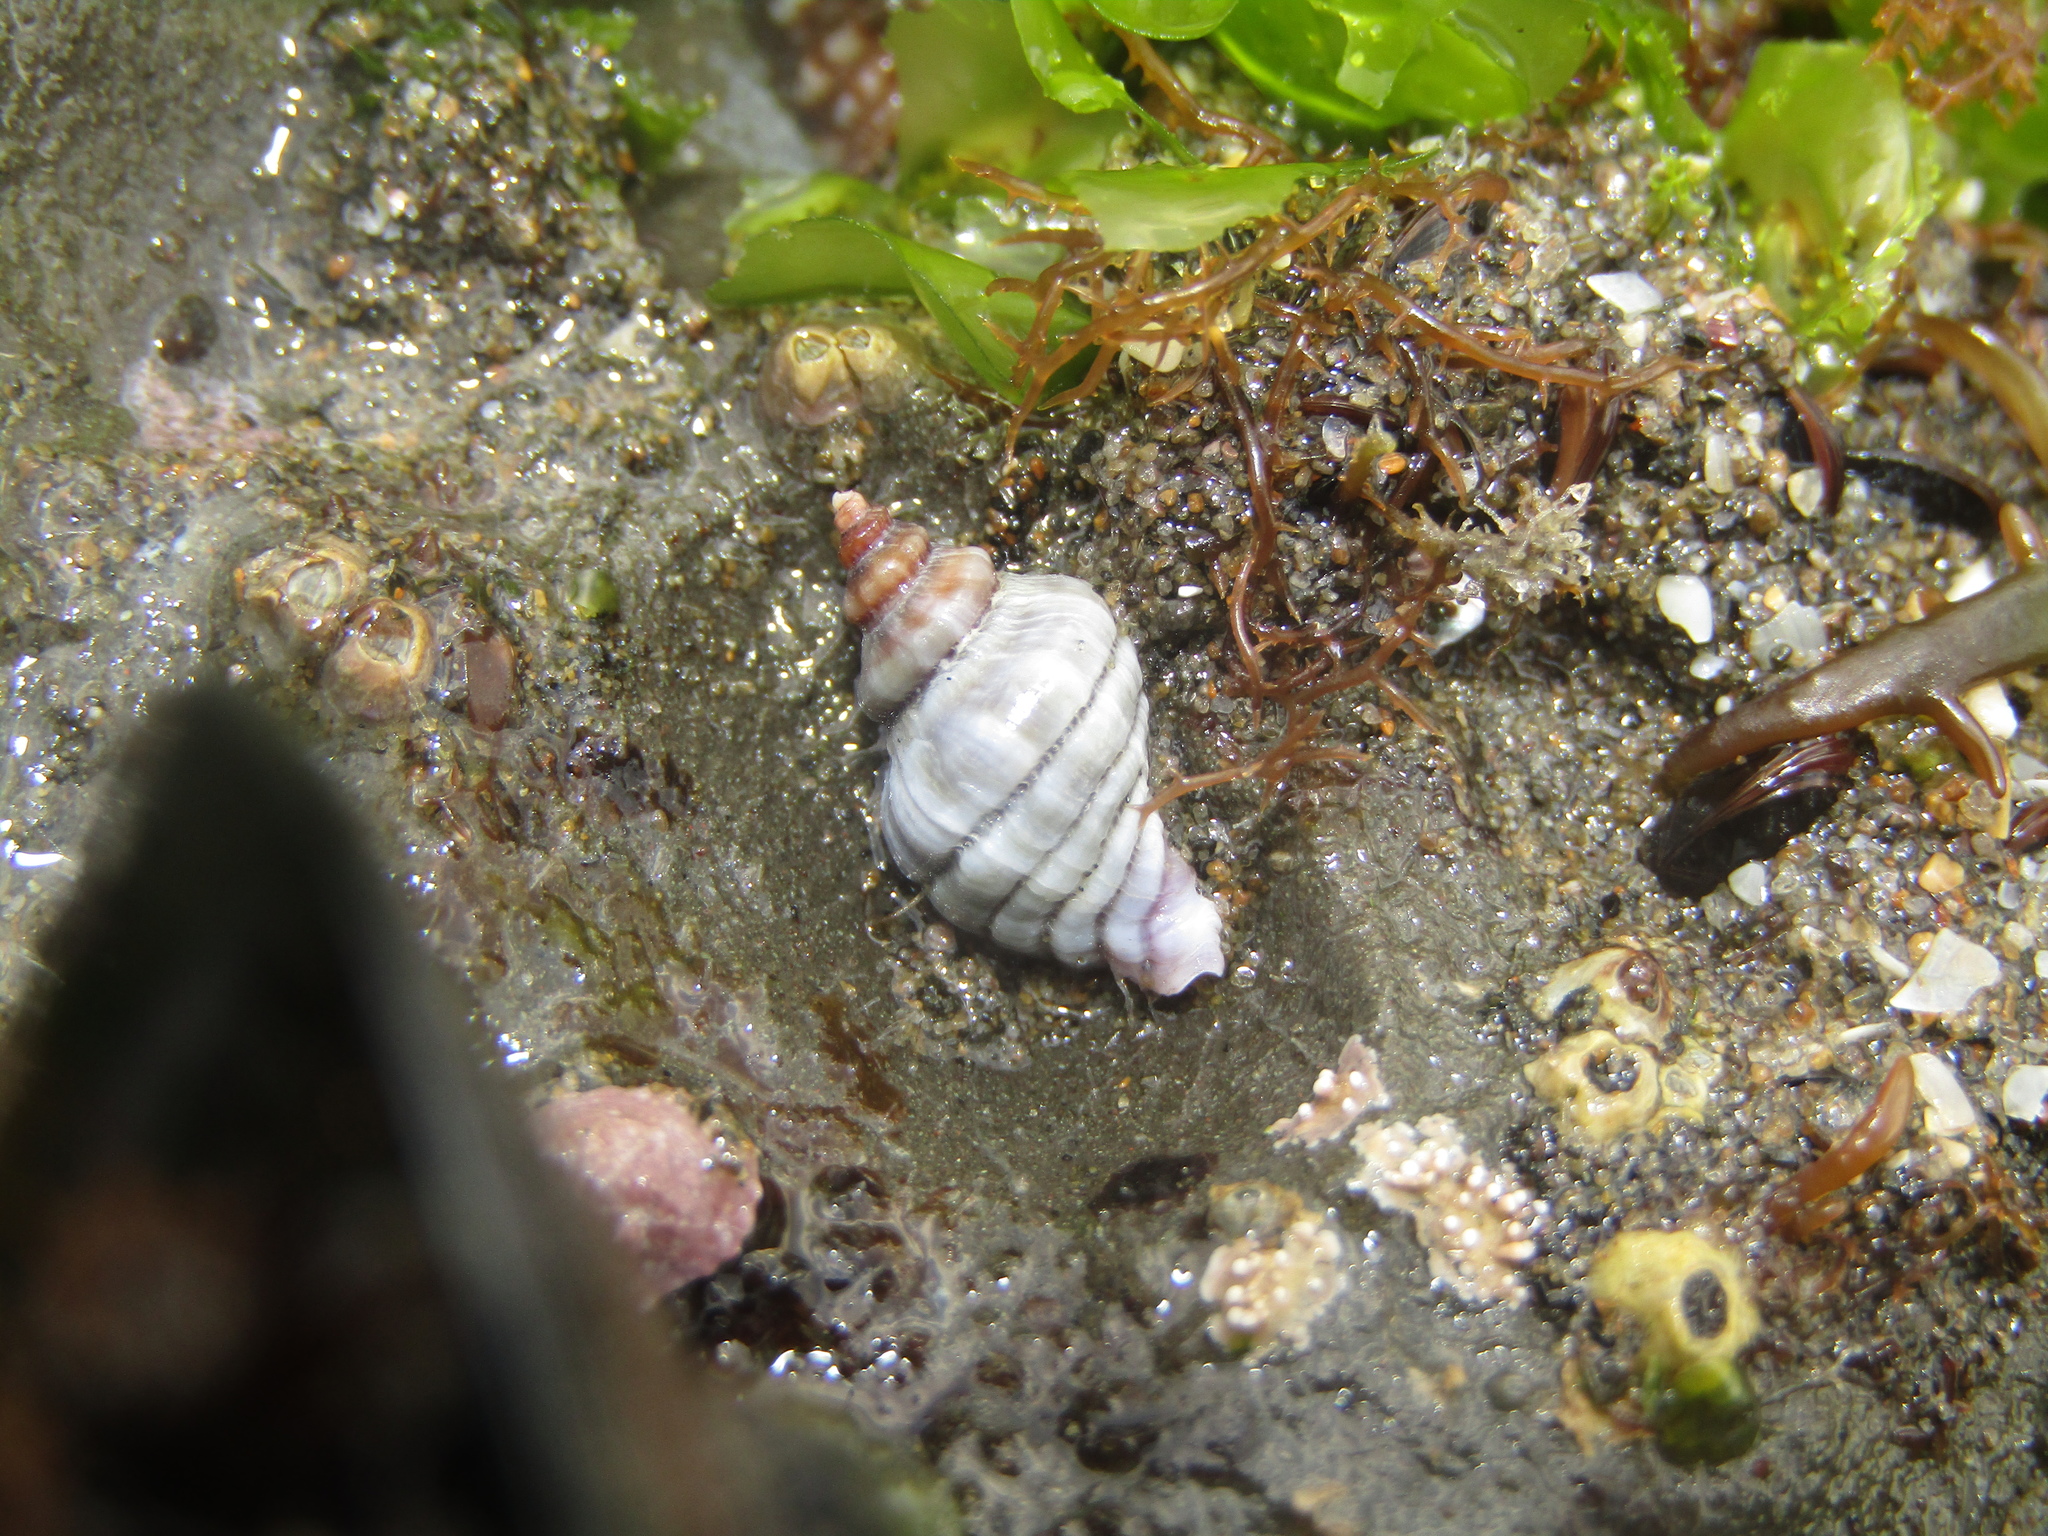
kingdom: Animalia
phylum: Mollusca
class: Gastropoda
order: Neogastropoda
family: Muricidae
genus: Paratrophon
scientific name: Paratrophon cheesemani
